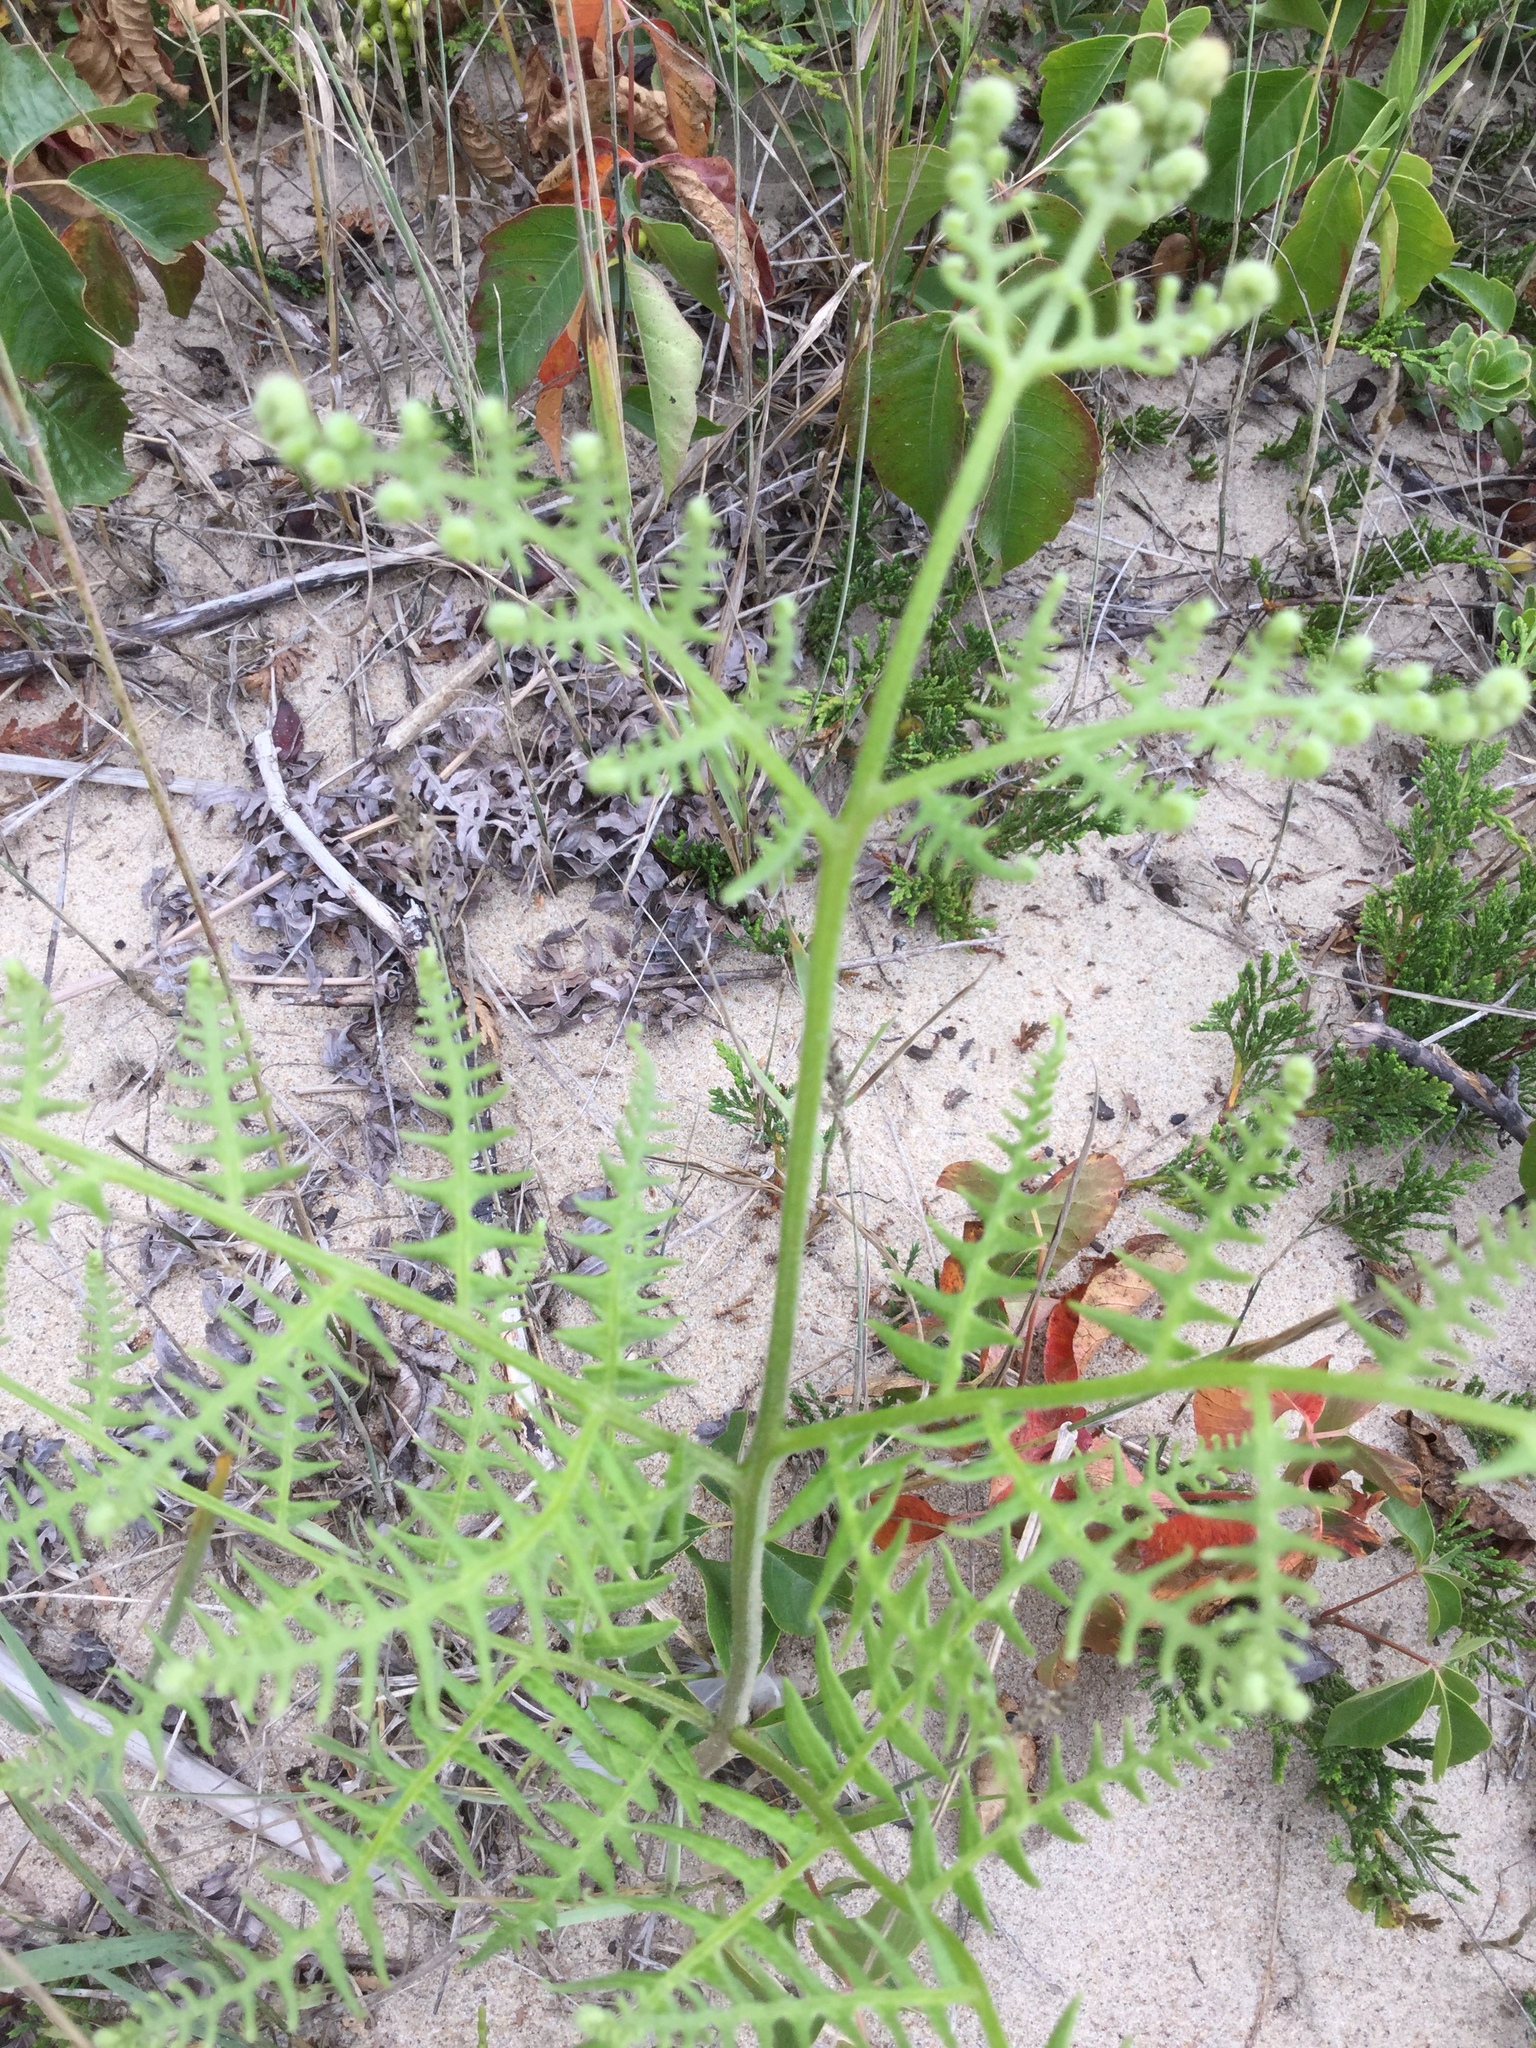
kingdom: Plantae
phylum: Tracheophyta
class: Polypodiopsida
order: Polypodiales
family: Dennstaedtiaceae
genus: Pteridium
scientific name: Pteridium aquilinum
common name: Bracken
